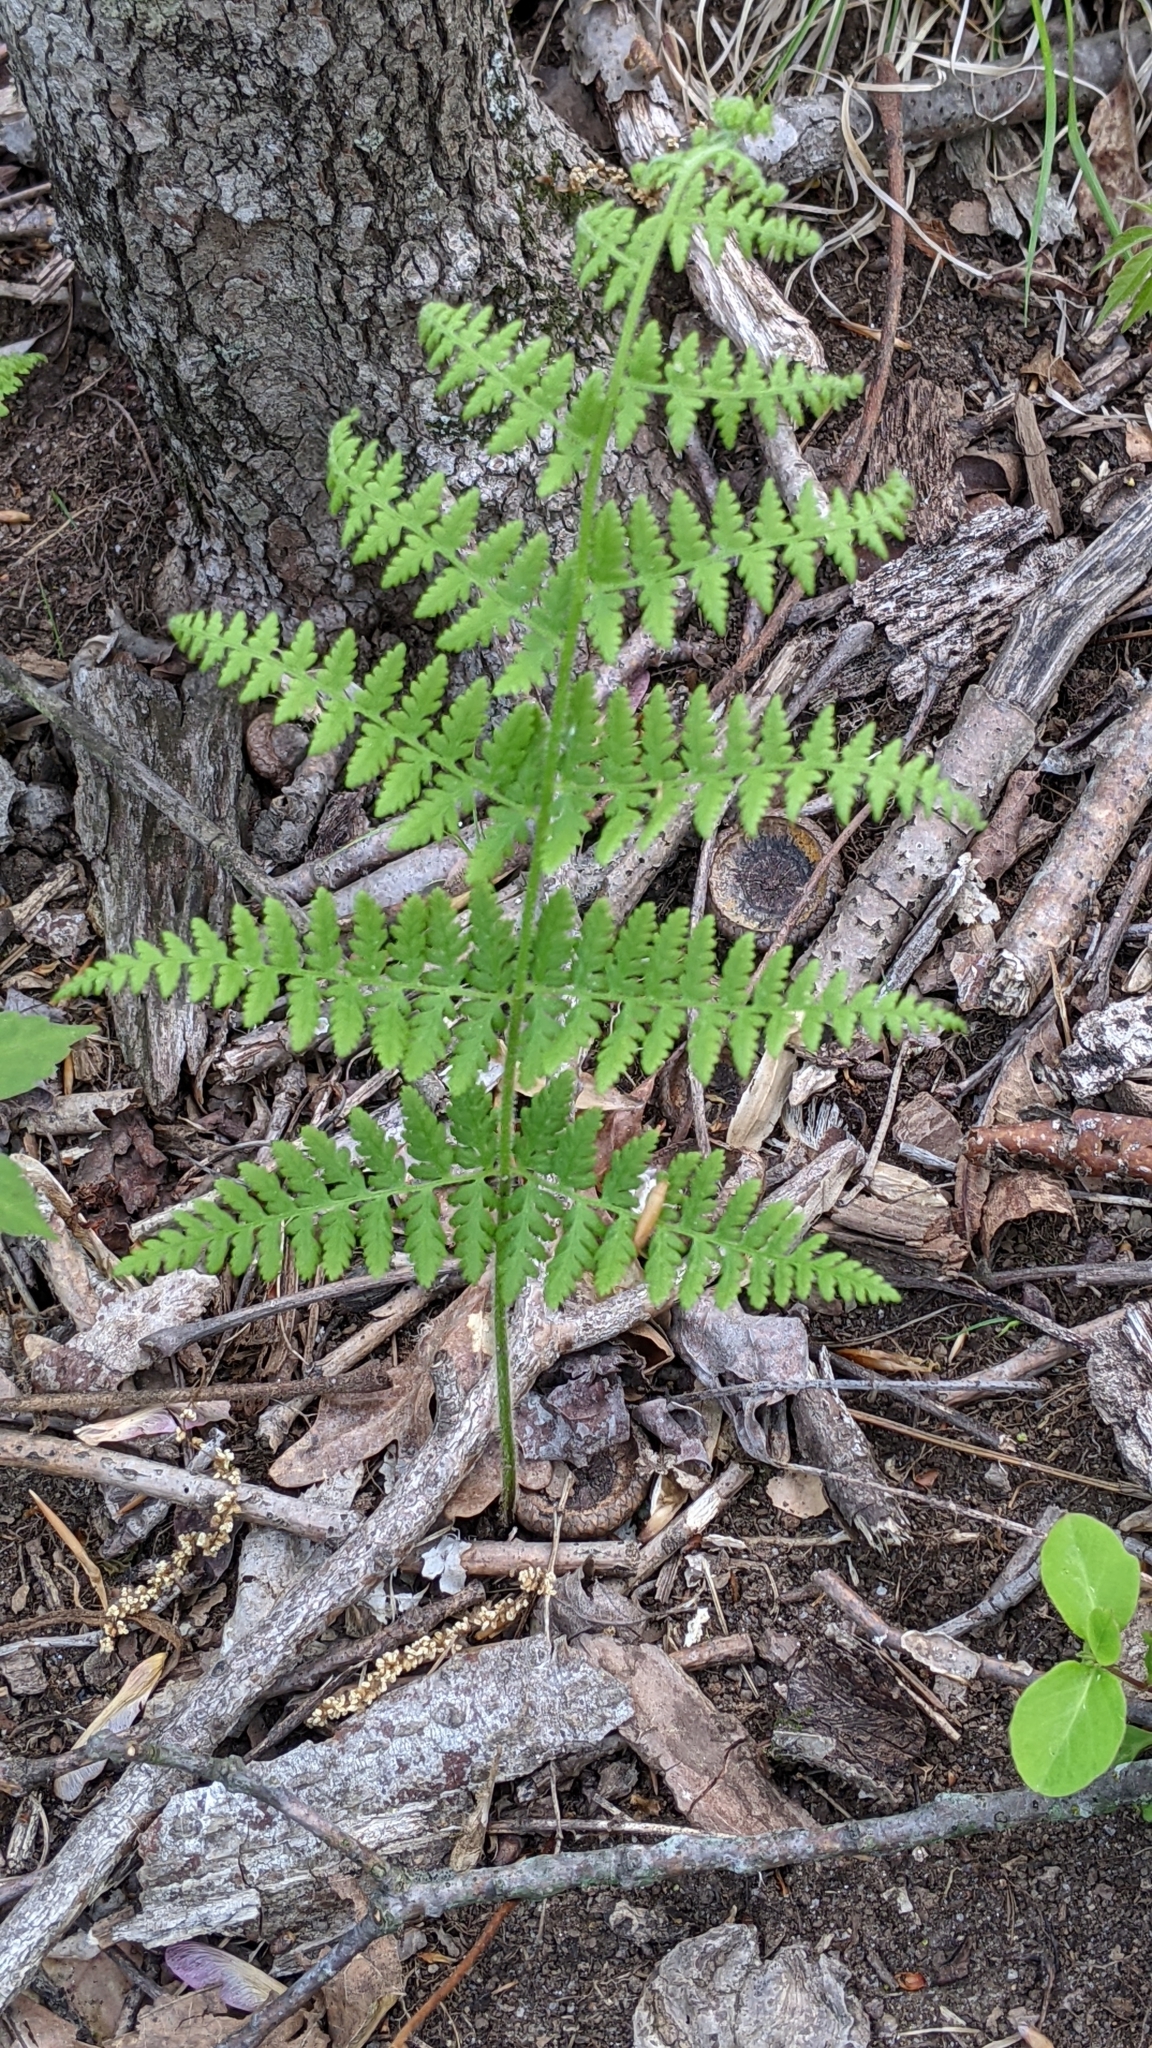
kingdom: Plantae
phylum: Tracheophyta
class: Polypodiopsida
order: Polypodiales
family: Dennstaedtiaceae
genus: Sitobolium
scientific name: Sitobolium punctilobum
